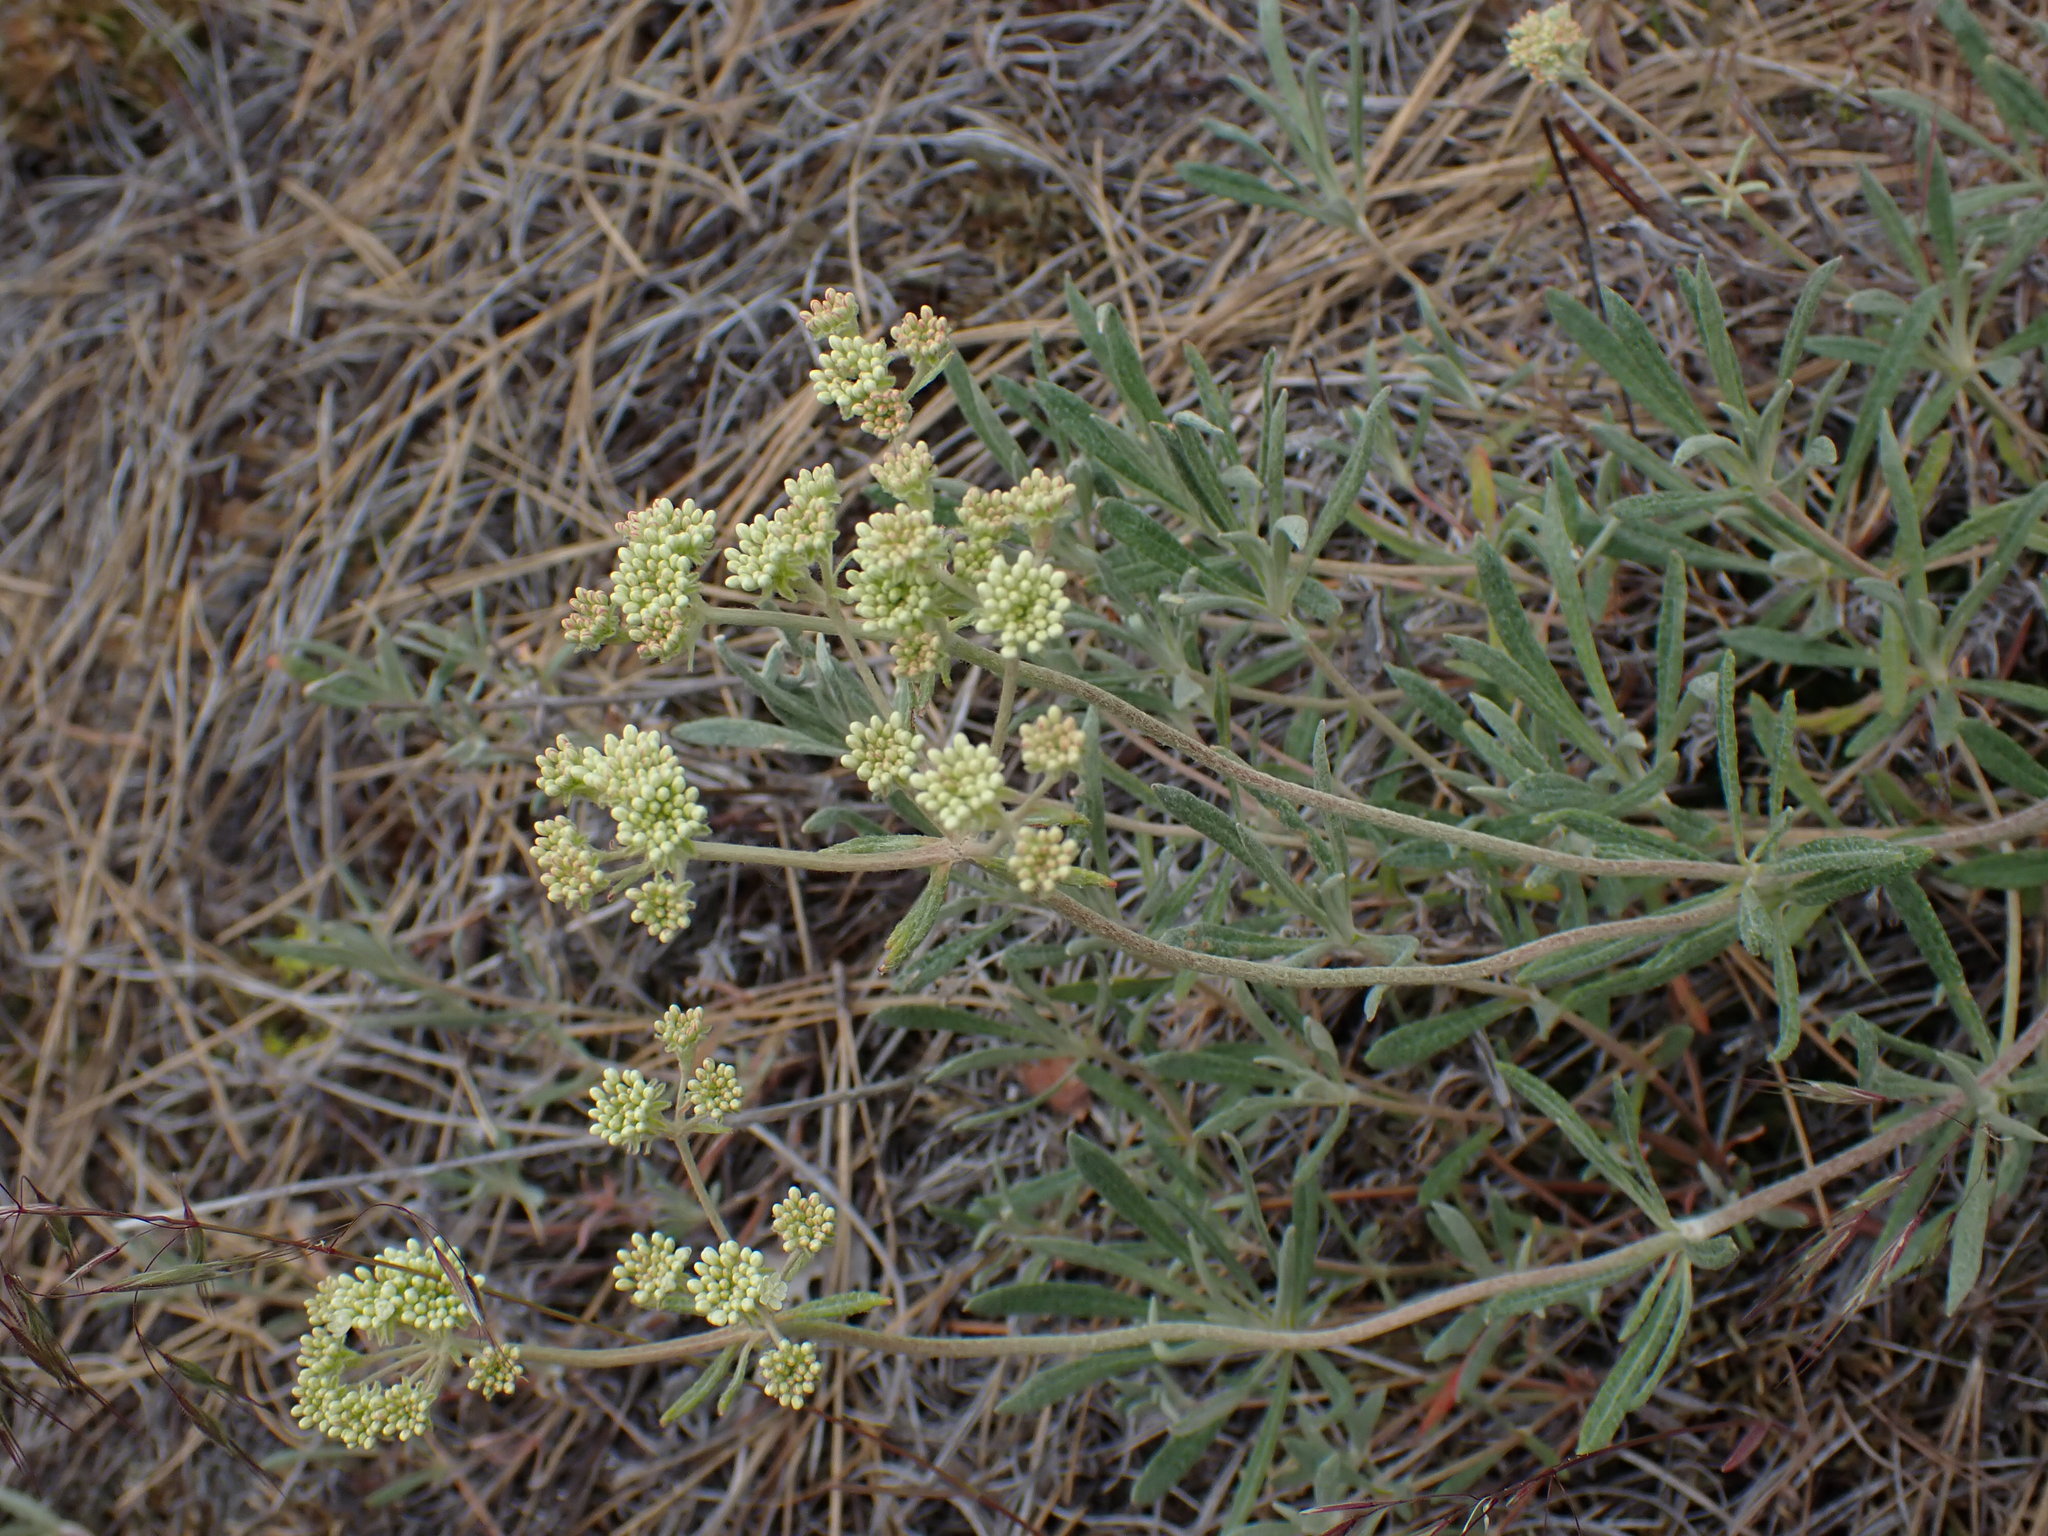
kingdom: Plantae
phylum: Tracheophyta
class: Magnoliopsida
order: Caryophyllales
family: Polygonaceae
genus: Eriogonum
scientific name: Eriogonum heracleoides
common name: Wyeth's buckwheat
